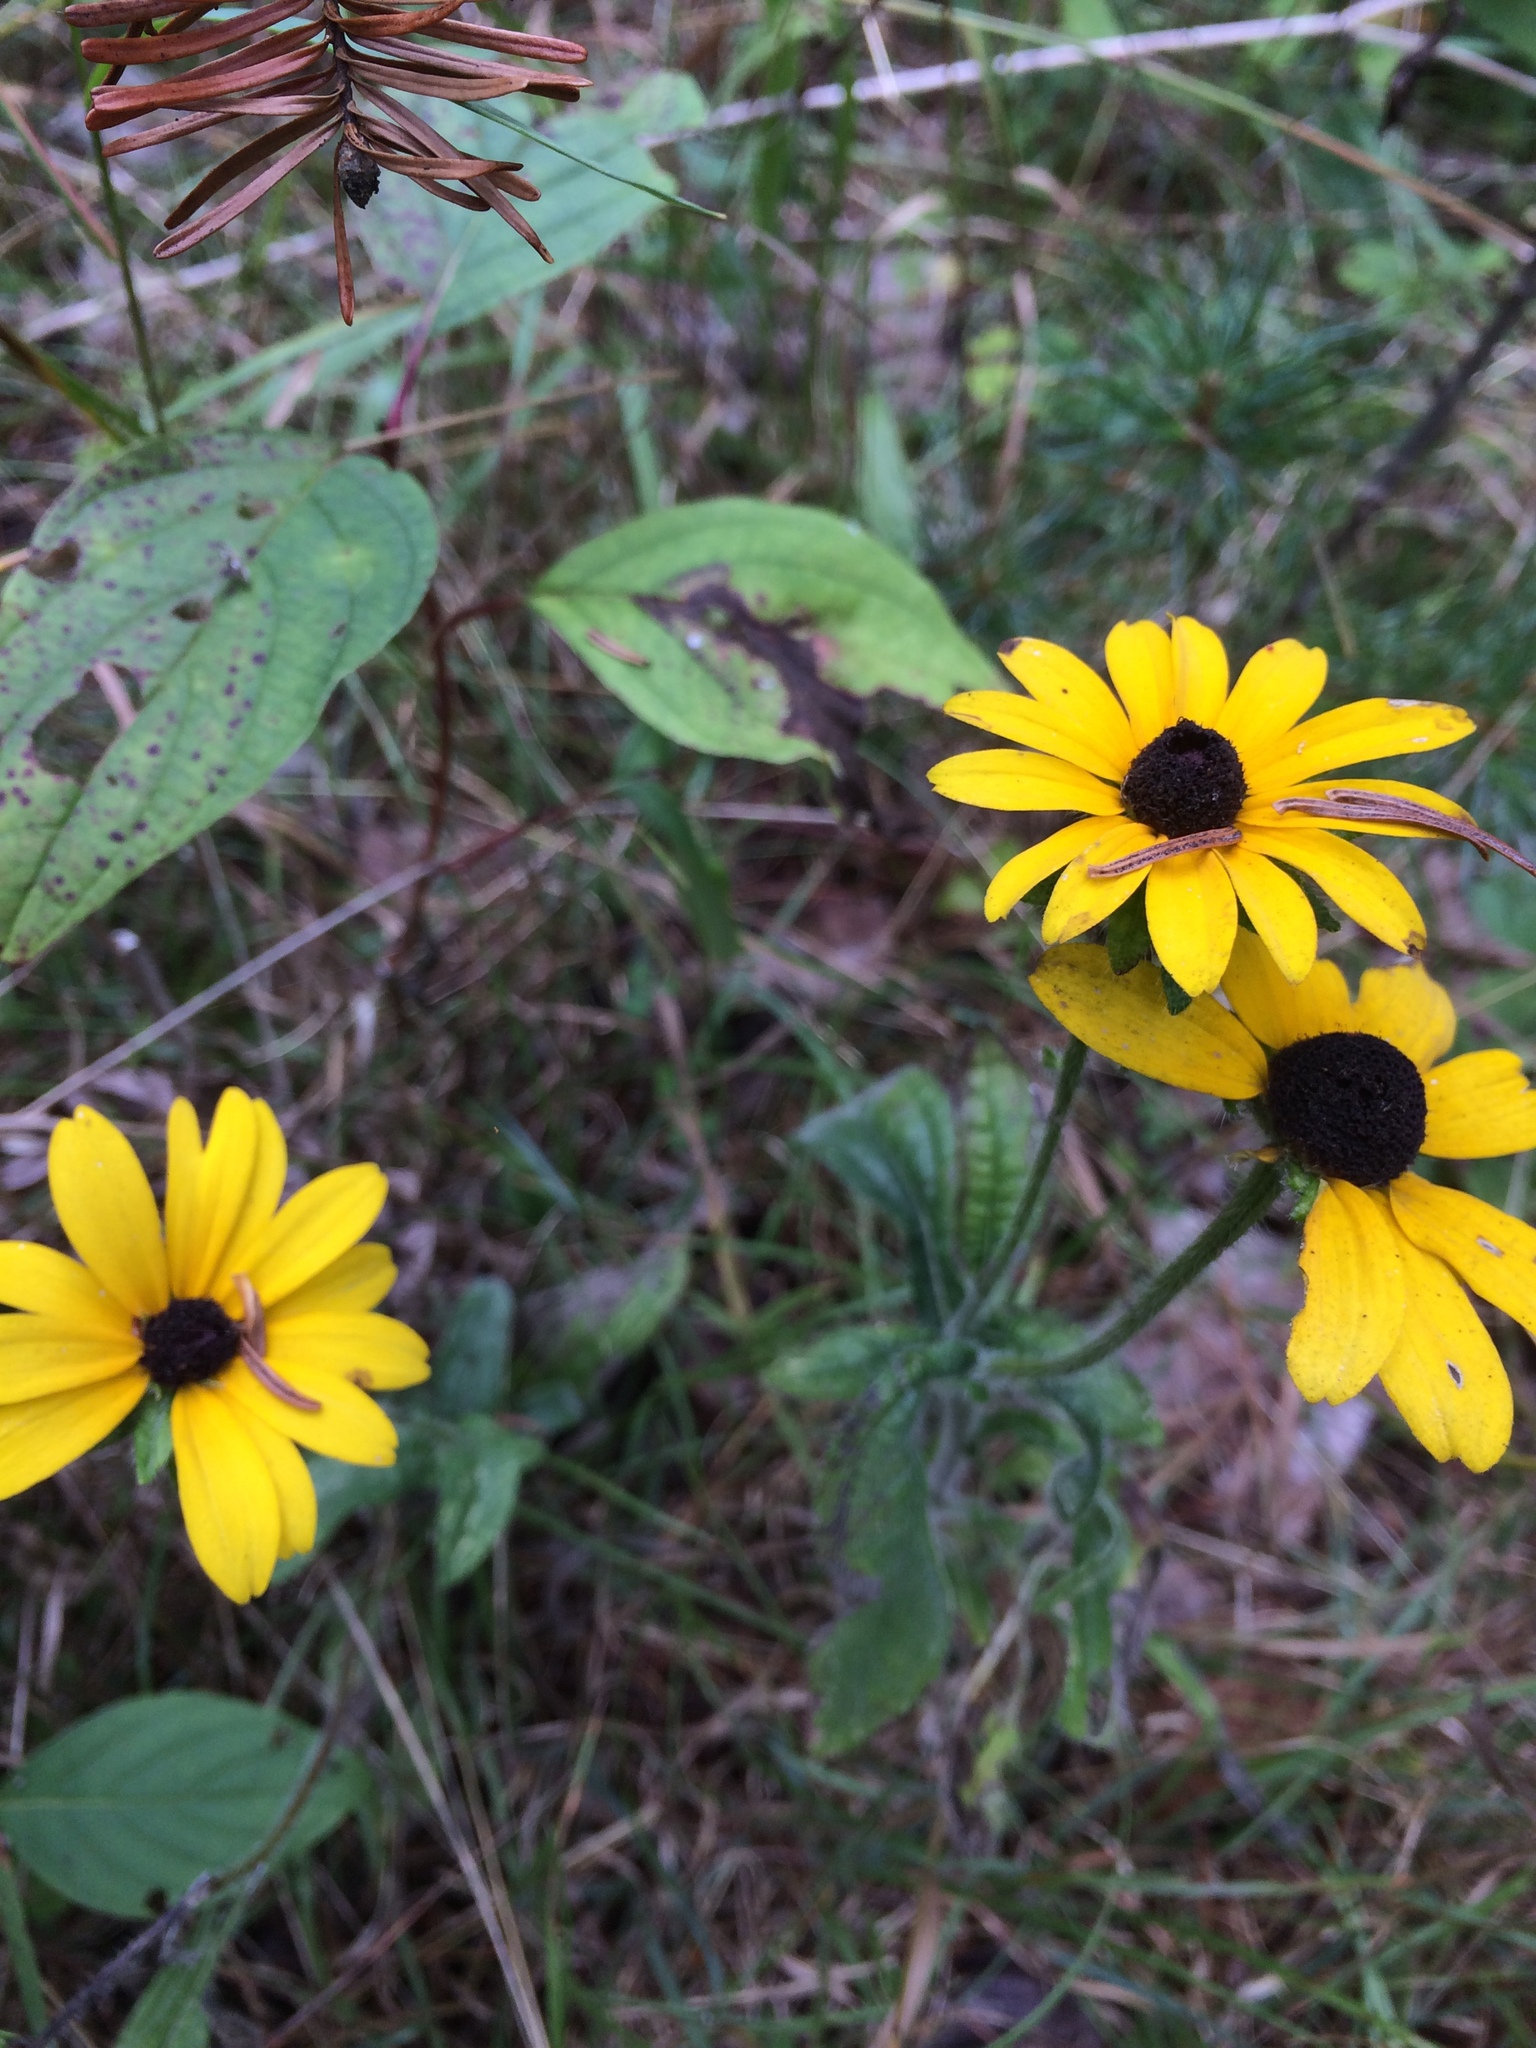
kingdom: Plantae
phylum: Tracheophyta
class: Magnoliopsida
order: Asterales
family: Asteraceae
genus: Rudbeckia
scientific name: Rudbeckia hirta
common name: Black-eyed-susan
